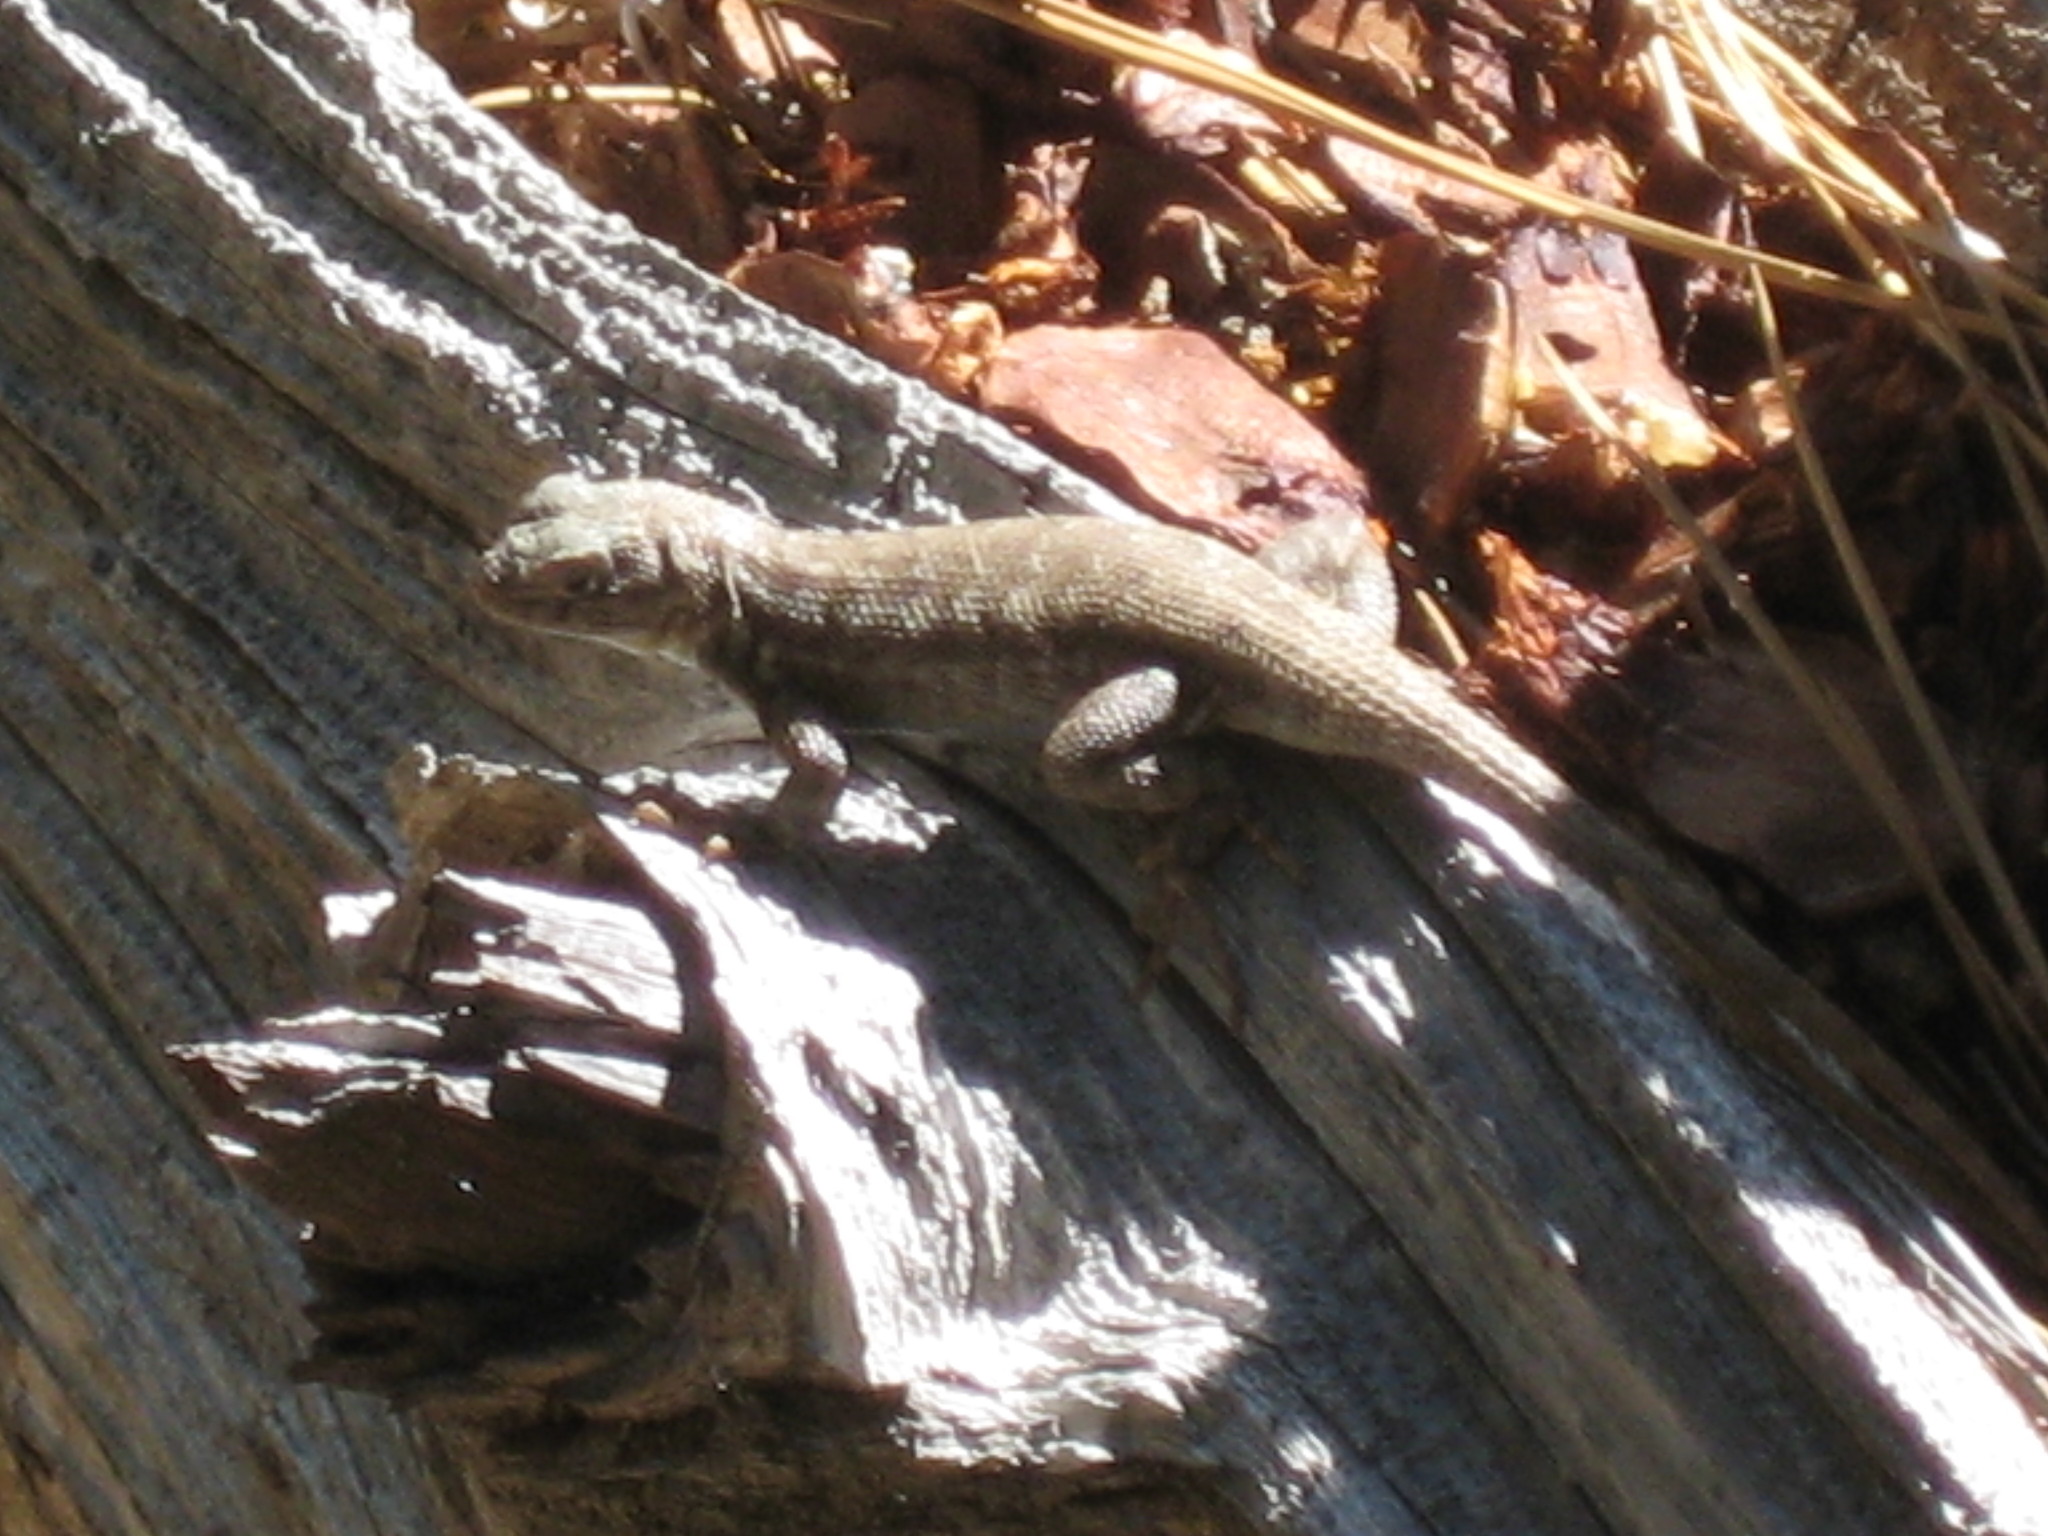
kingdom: Animalia
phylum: Chordata
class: Squamata
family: Phrynosomatidae
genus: Sceloporus
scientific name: Sceloporus graciosus
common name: Sagebrush lizard
